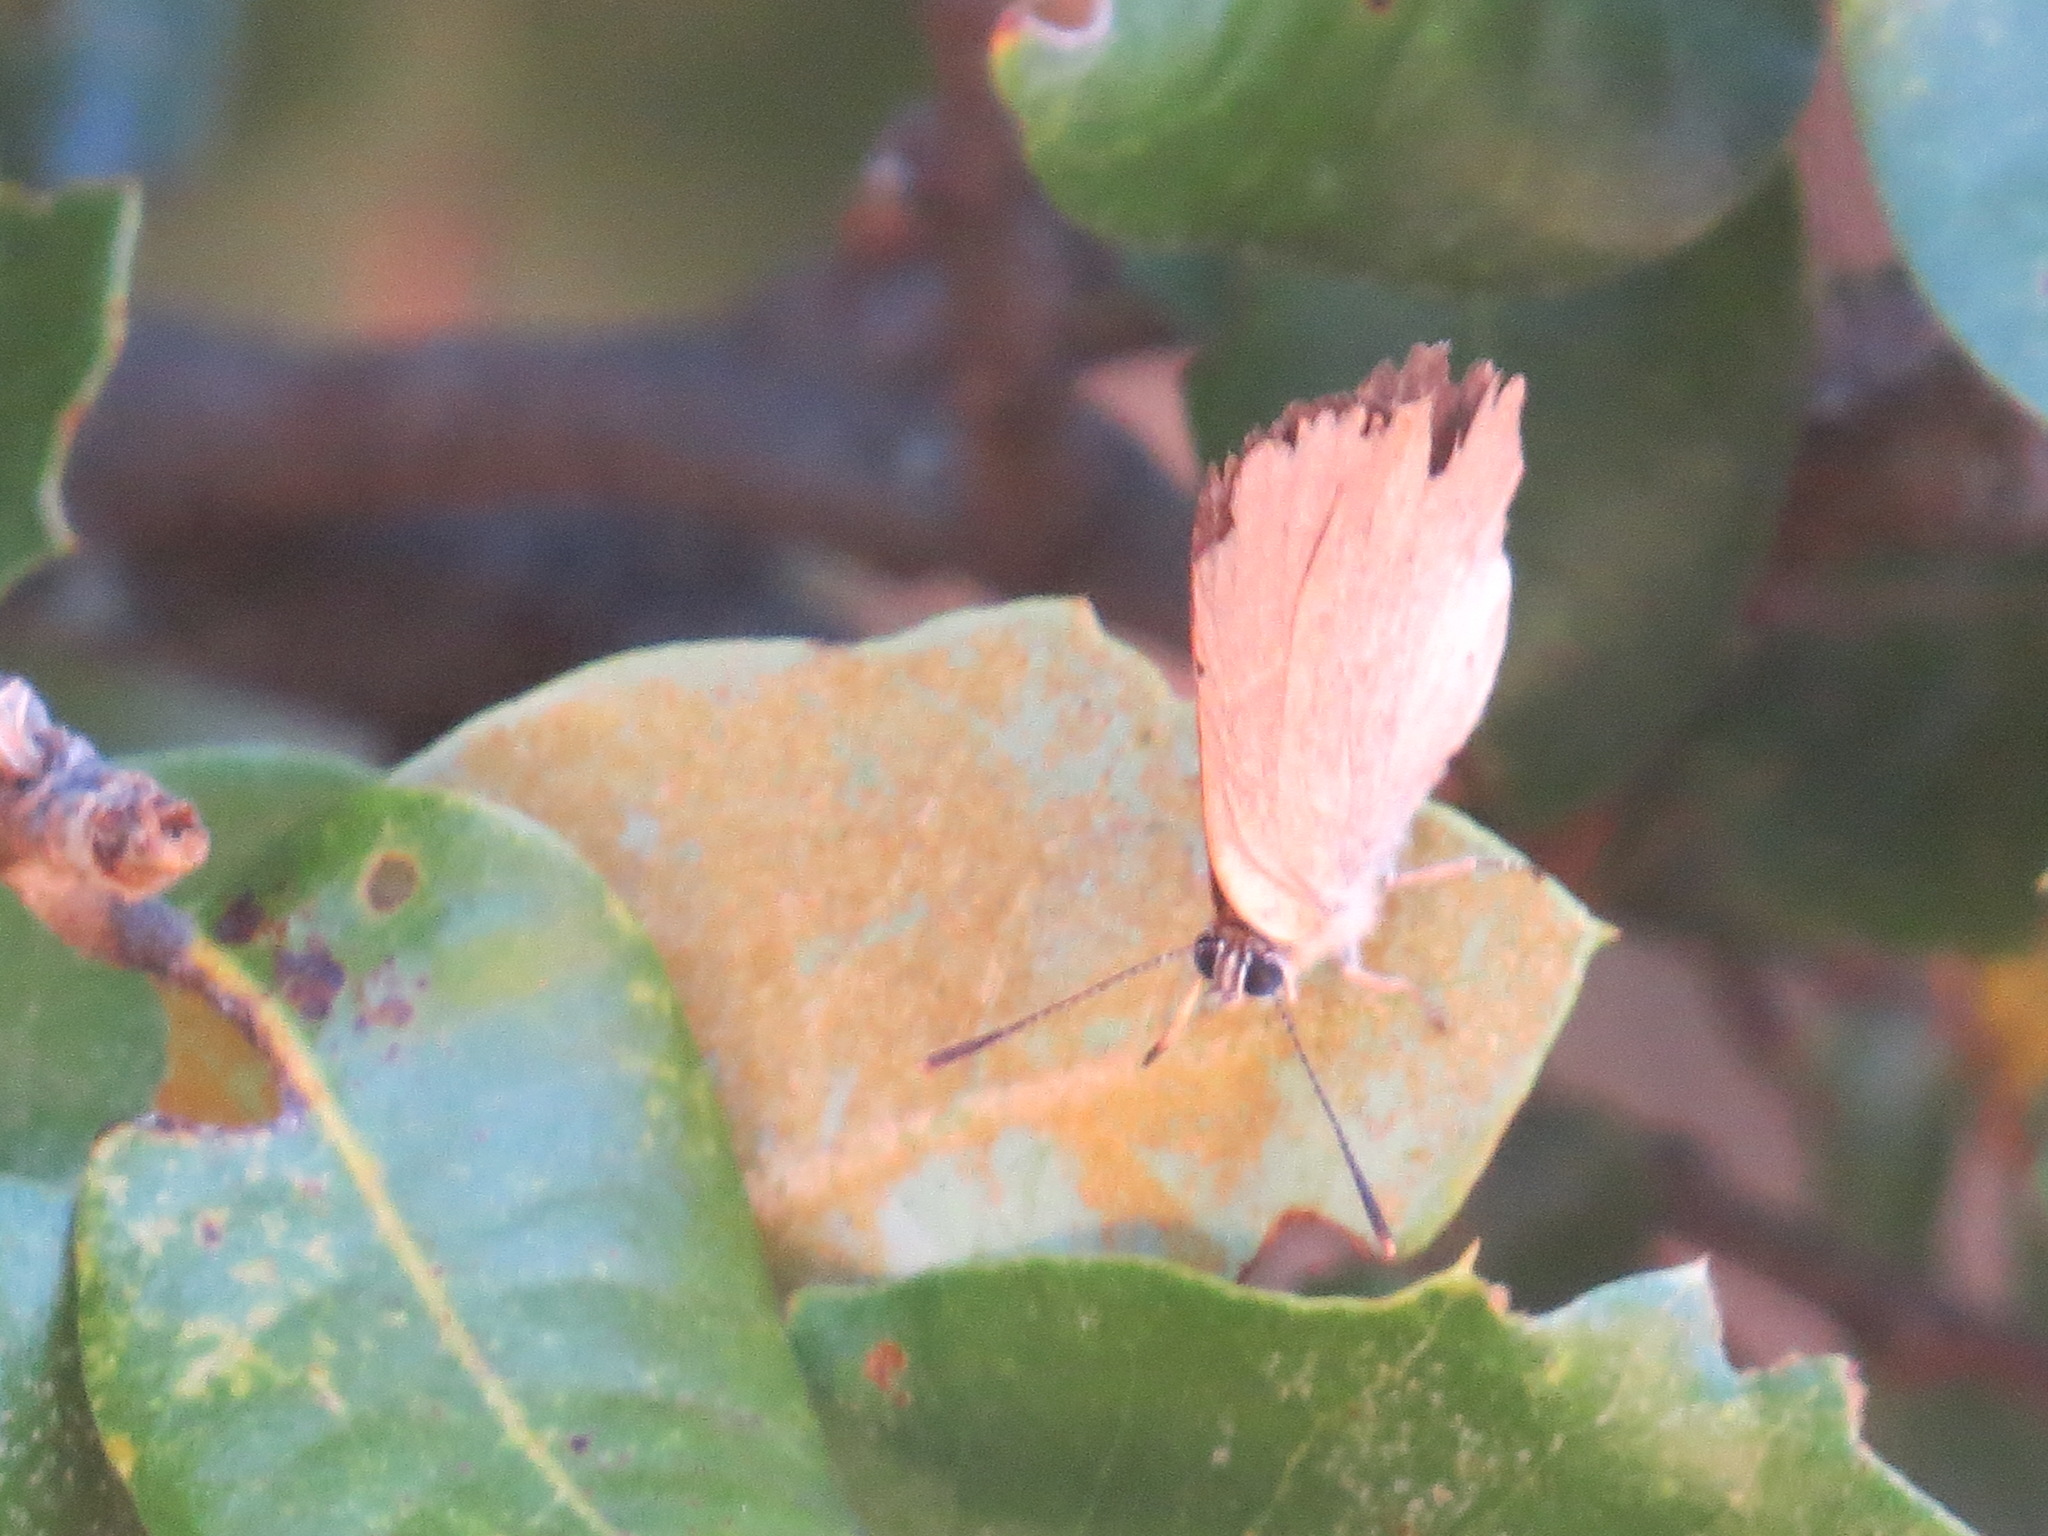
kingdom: Animalia
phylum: Arthropoda
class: Insecta
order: Lepidoptera
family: Lycaenidae
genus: Habrodais
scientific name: Habrodais grunus
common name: Golden hairstreak
